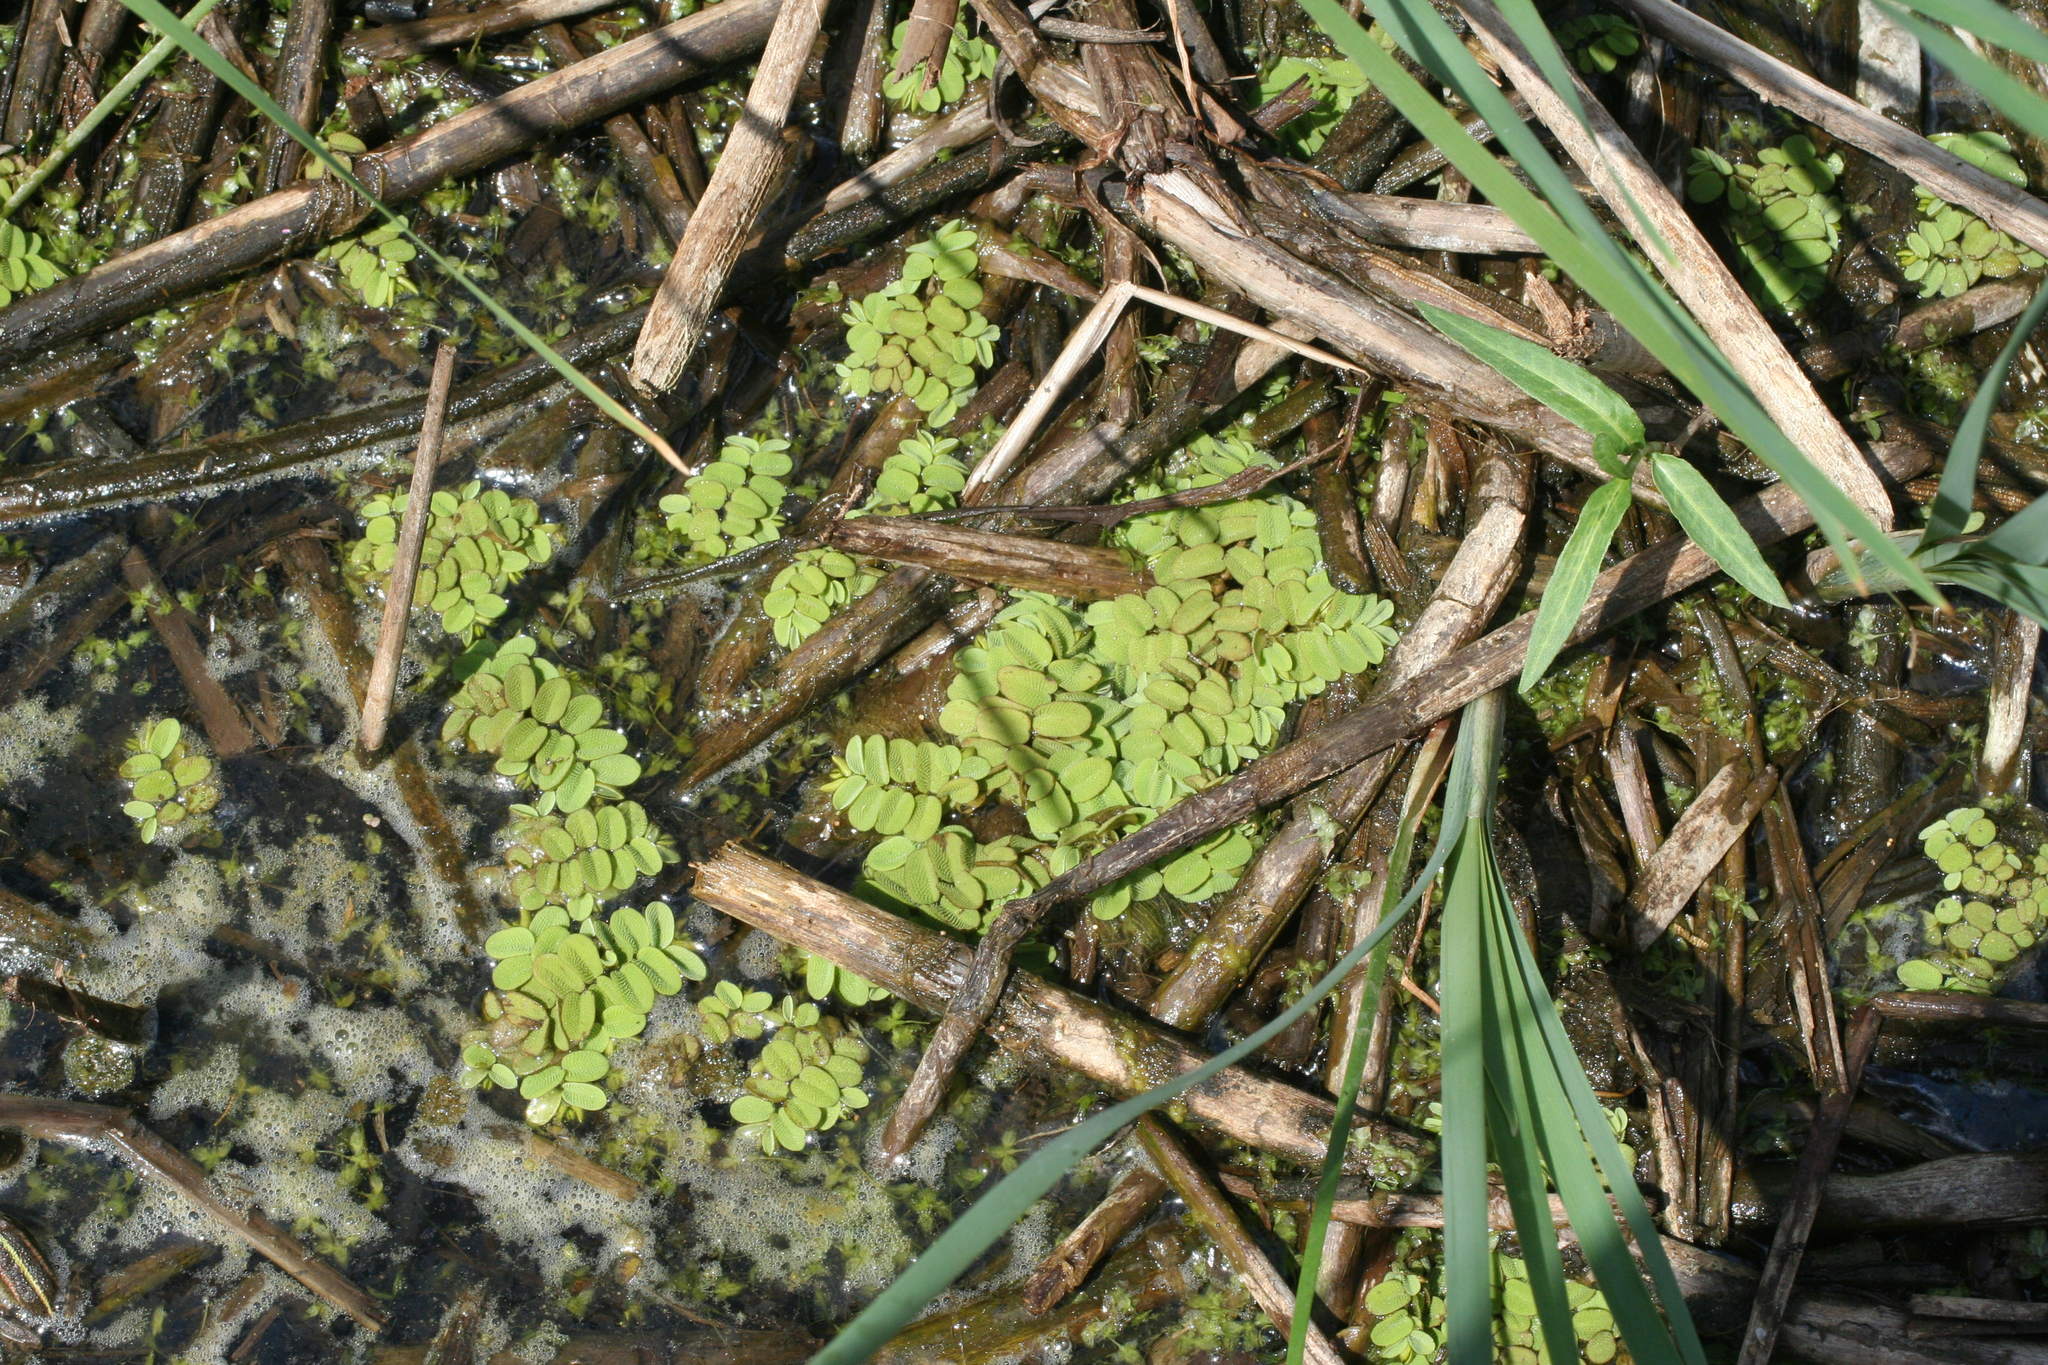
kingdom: Plantae
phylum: Tracheophyta
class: Polypodiopsida
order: Salviniales
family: Salviniaceae
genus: Salvinia
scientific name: Salvinia natans
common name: Floating fern
